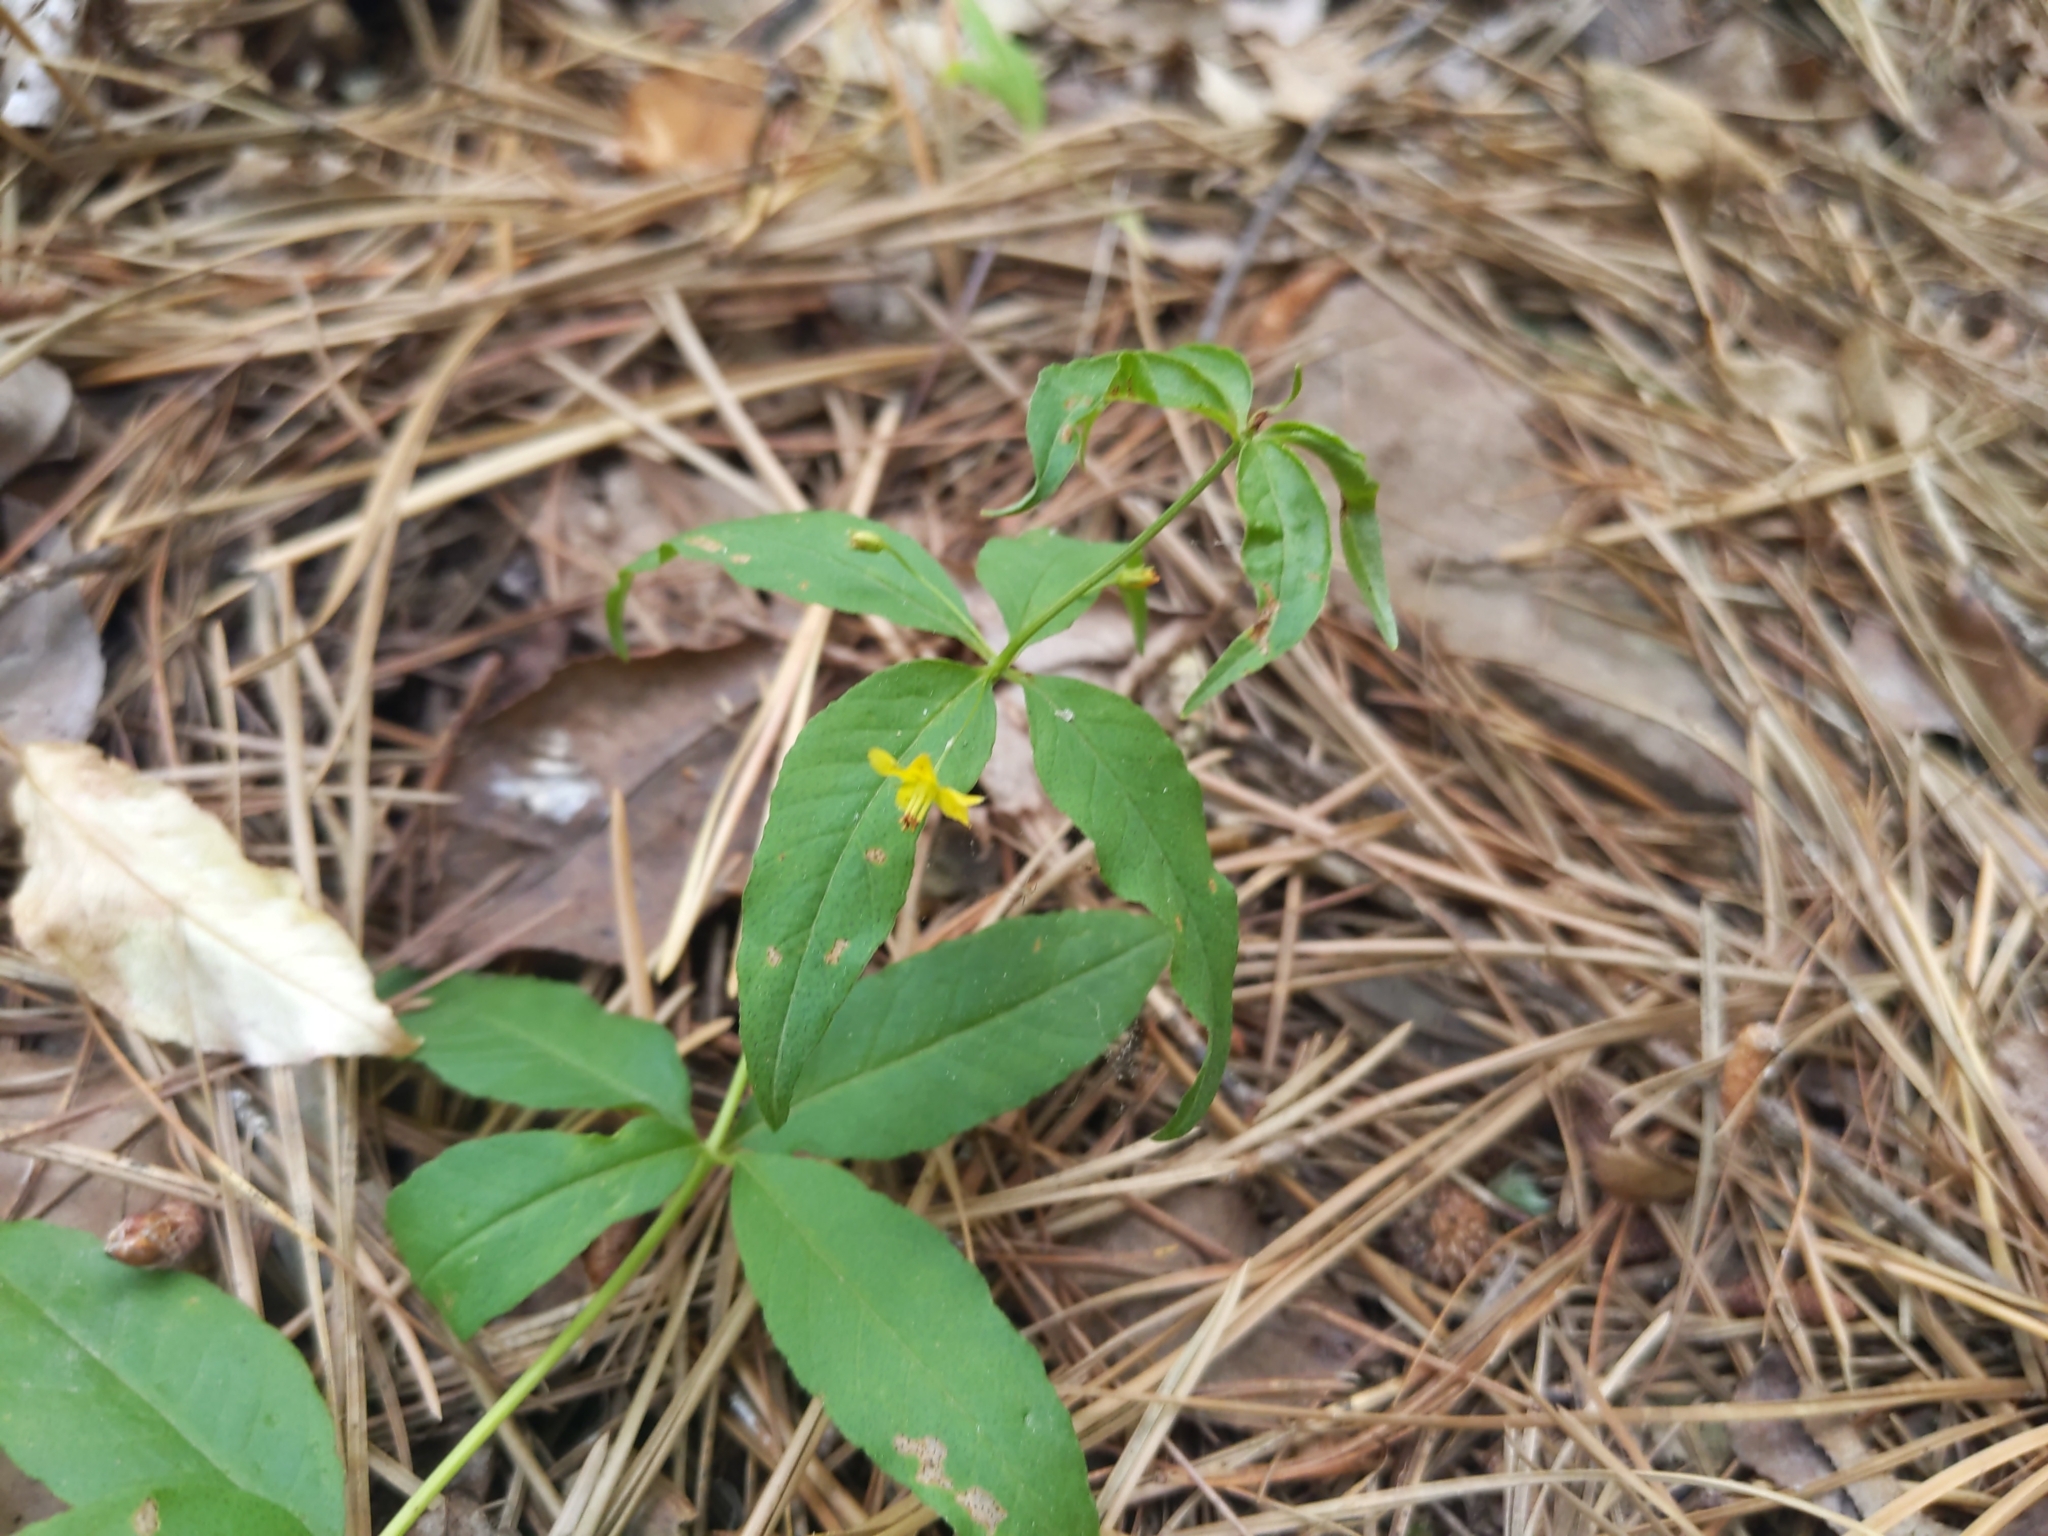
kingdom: Plantae
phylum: Tracheophyta
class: Magnoliopsida
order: Ericales
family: Primulaceae
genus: Lysimachia
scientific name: Lysimachia quadrifolia
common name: Whorled loosestrife
